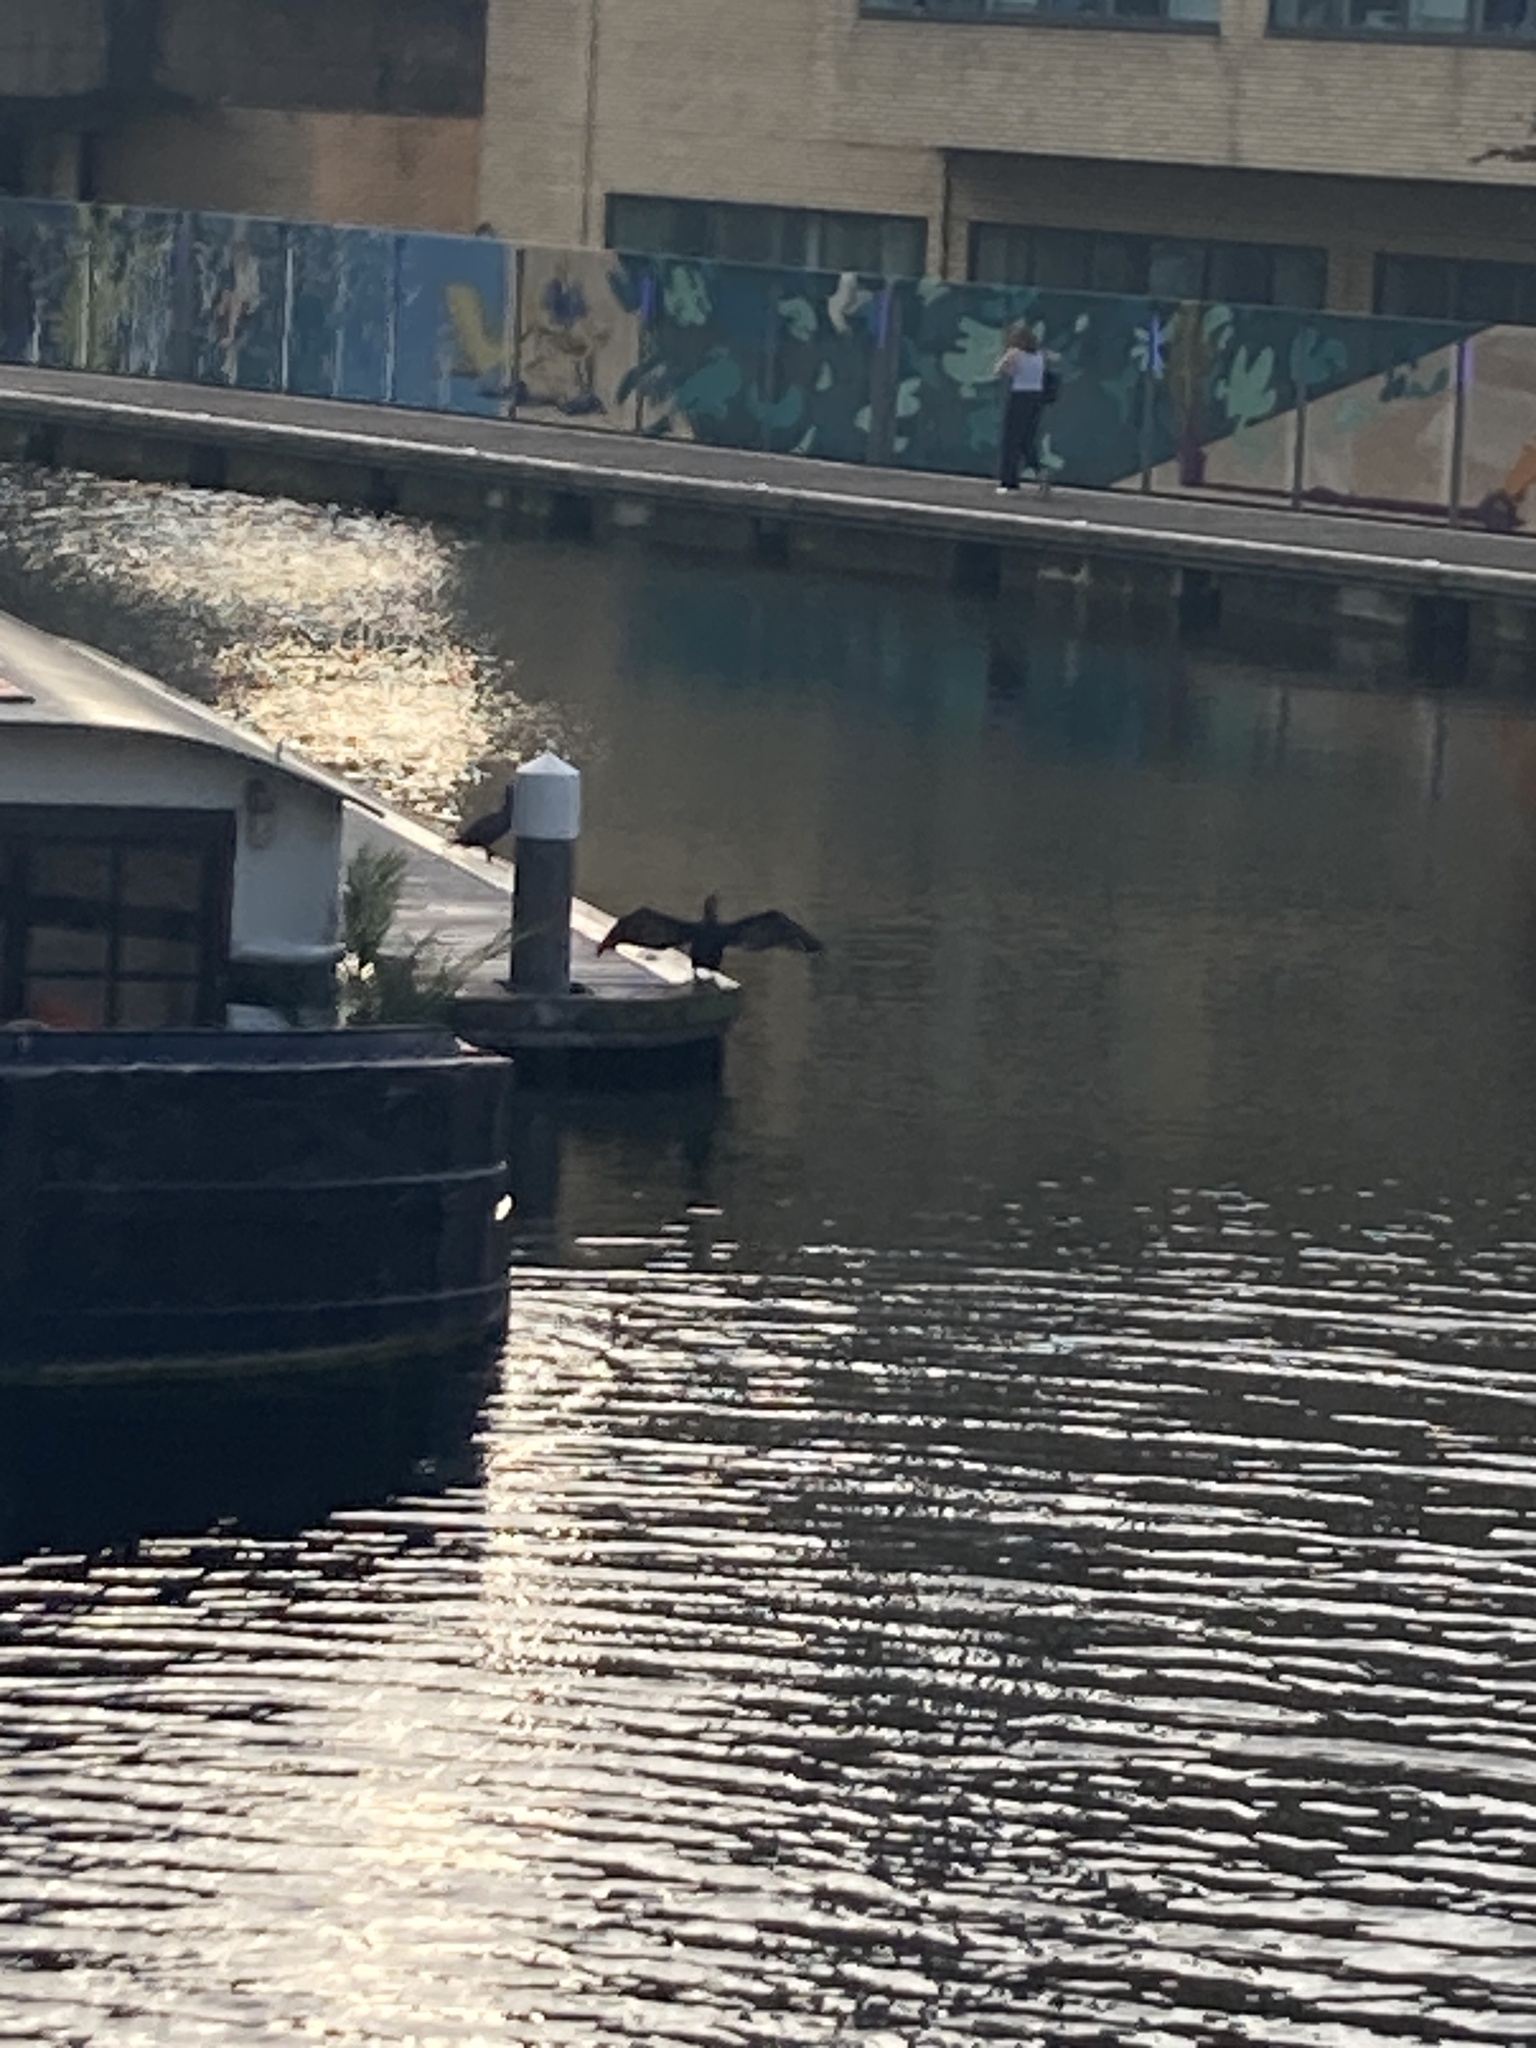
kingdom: Animalia
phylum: Chordata
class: Aves
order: Suliformes
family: Phalacrocoracidae
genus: Phalacrocorax
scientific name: Phalacrocorax carbo
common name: Great cormorant
